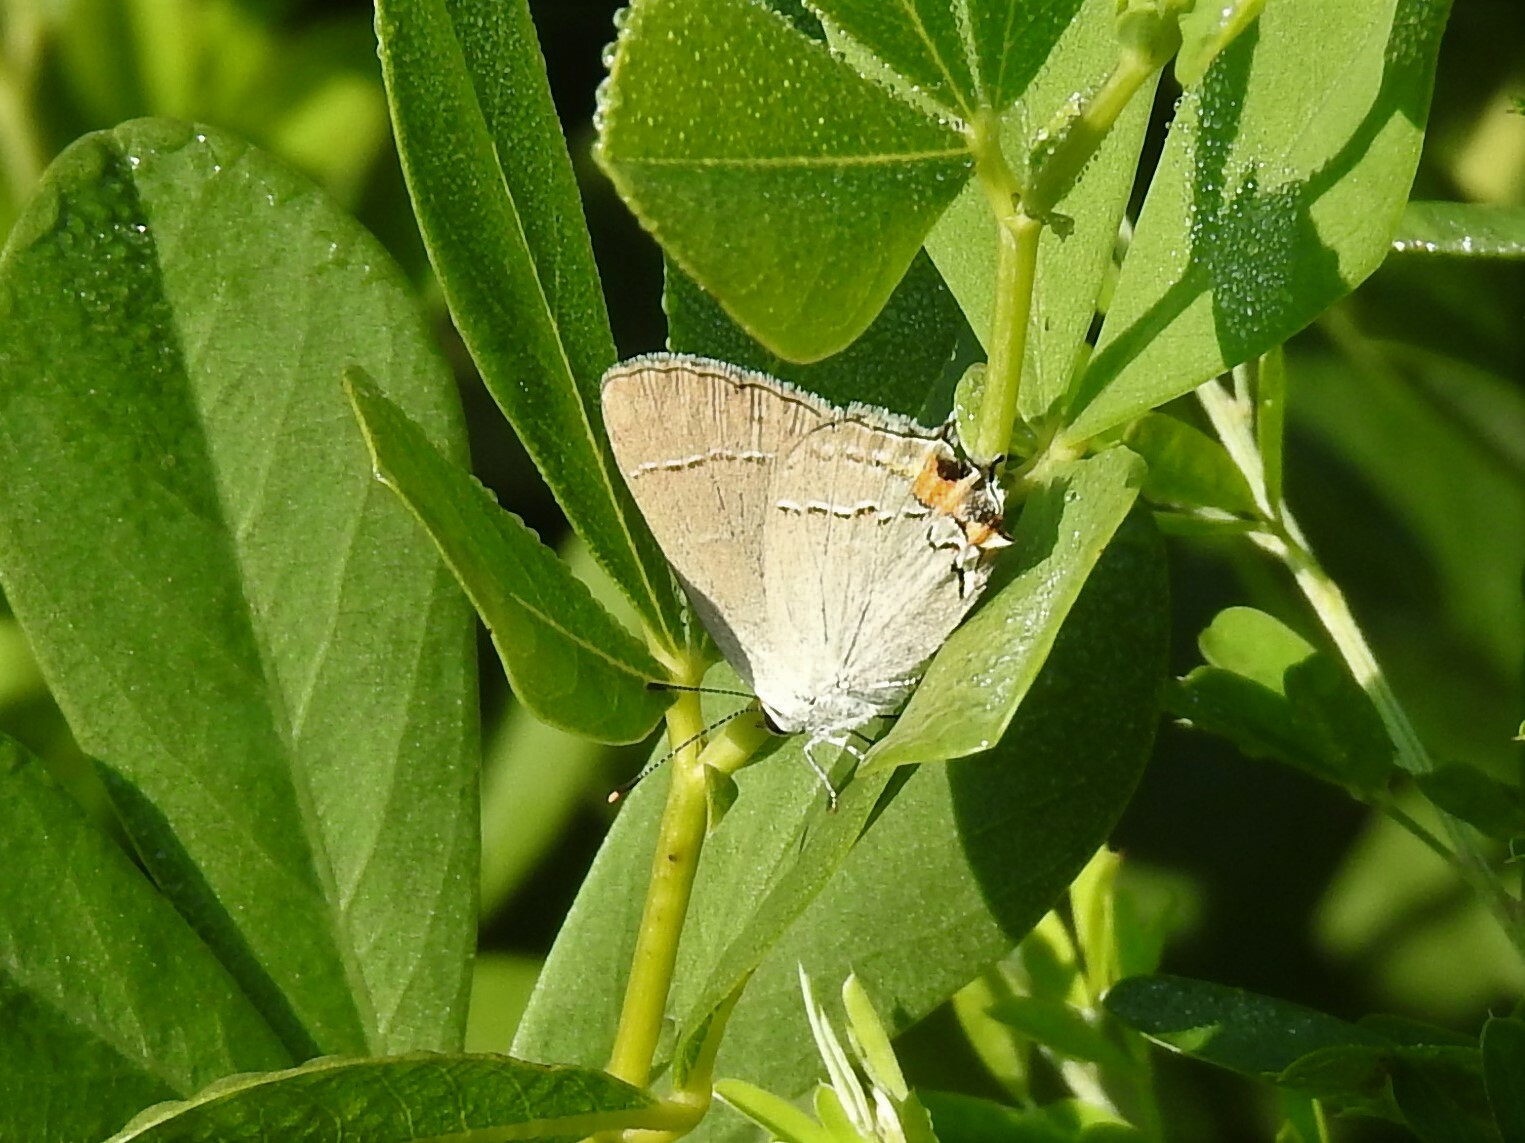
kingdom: Animalia
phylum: Arthropoda
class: Insecta
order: Lepidoptera
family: Lycaenidae
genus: Strymon
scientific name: Strymon melinus
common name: Gray hairstreak
